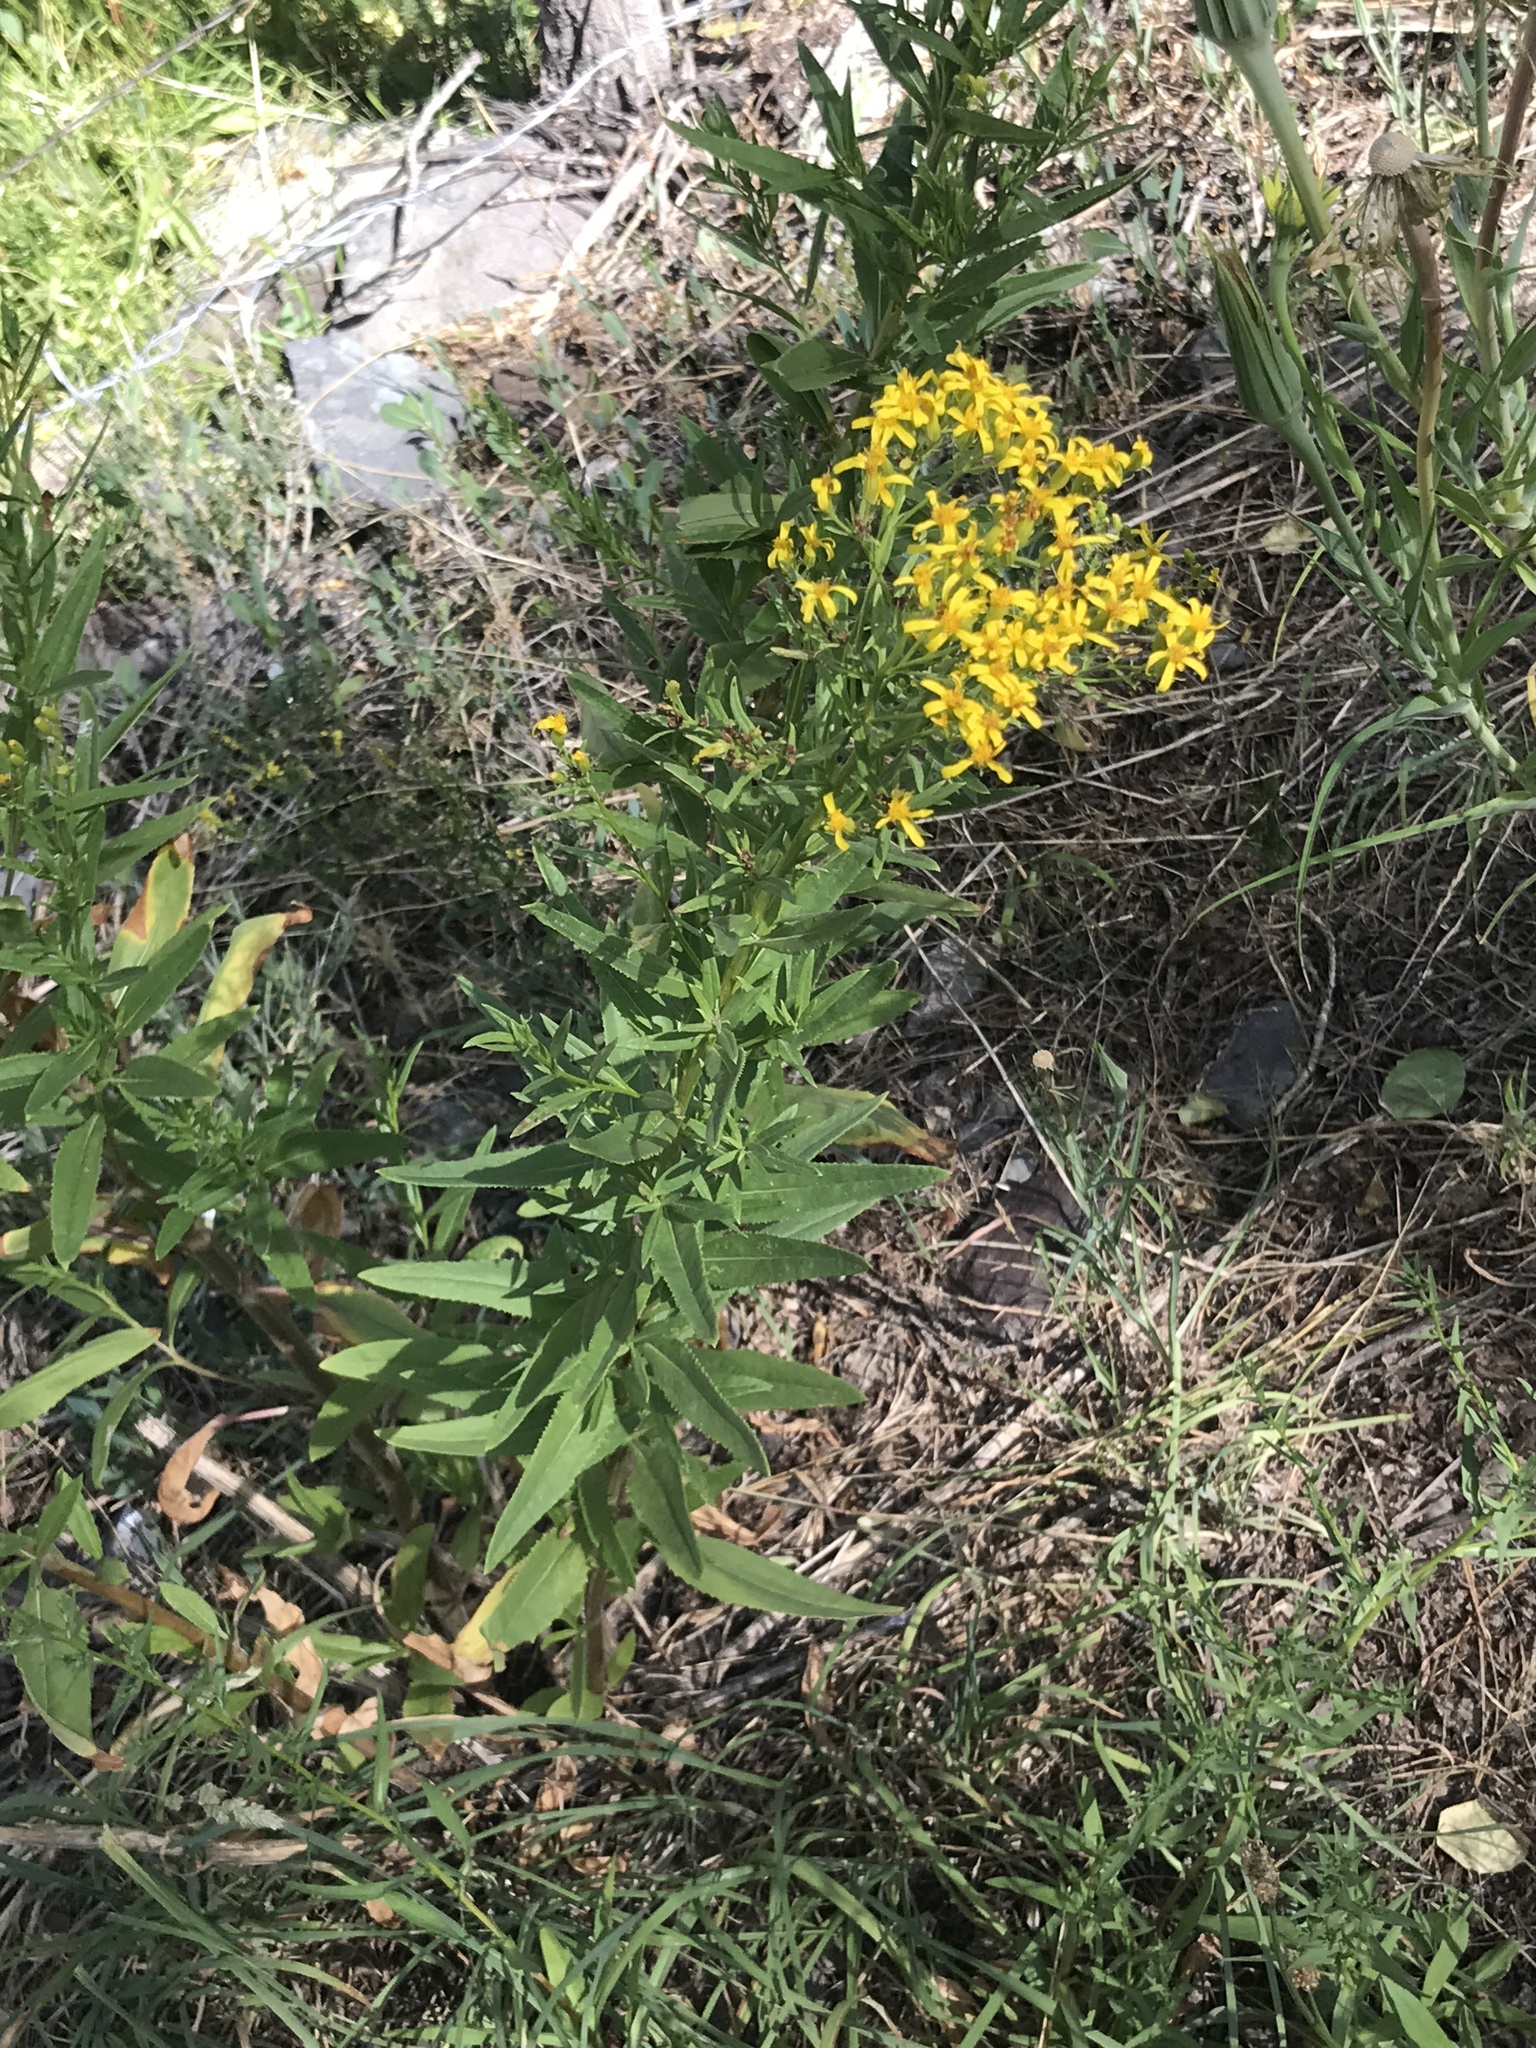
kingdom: Plantae
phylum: Tracheophyta
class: Magnoliopsida
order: Asterales
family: Asteraceae
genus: Senecio
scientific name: Senecio triangularis
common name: Arrowleaf butterweed
